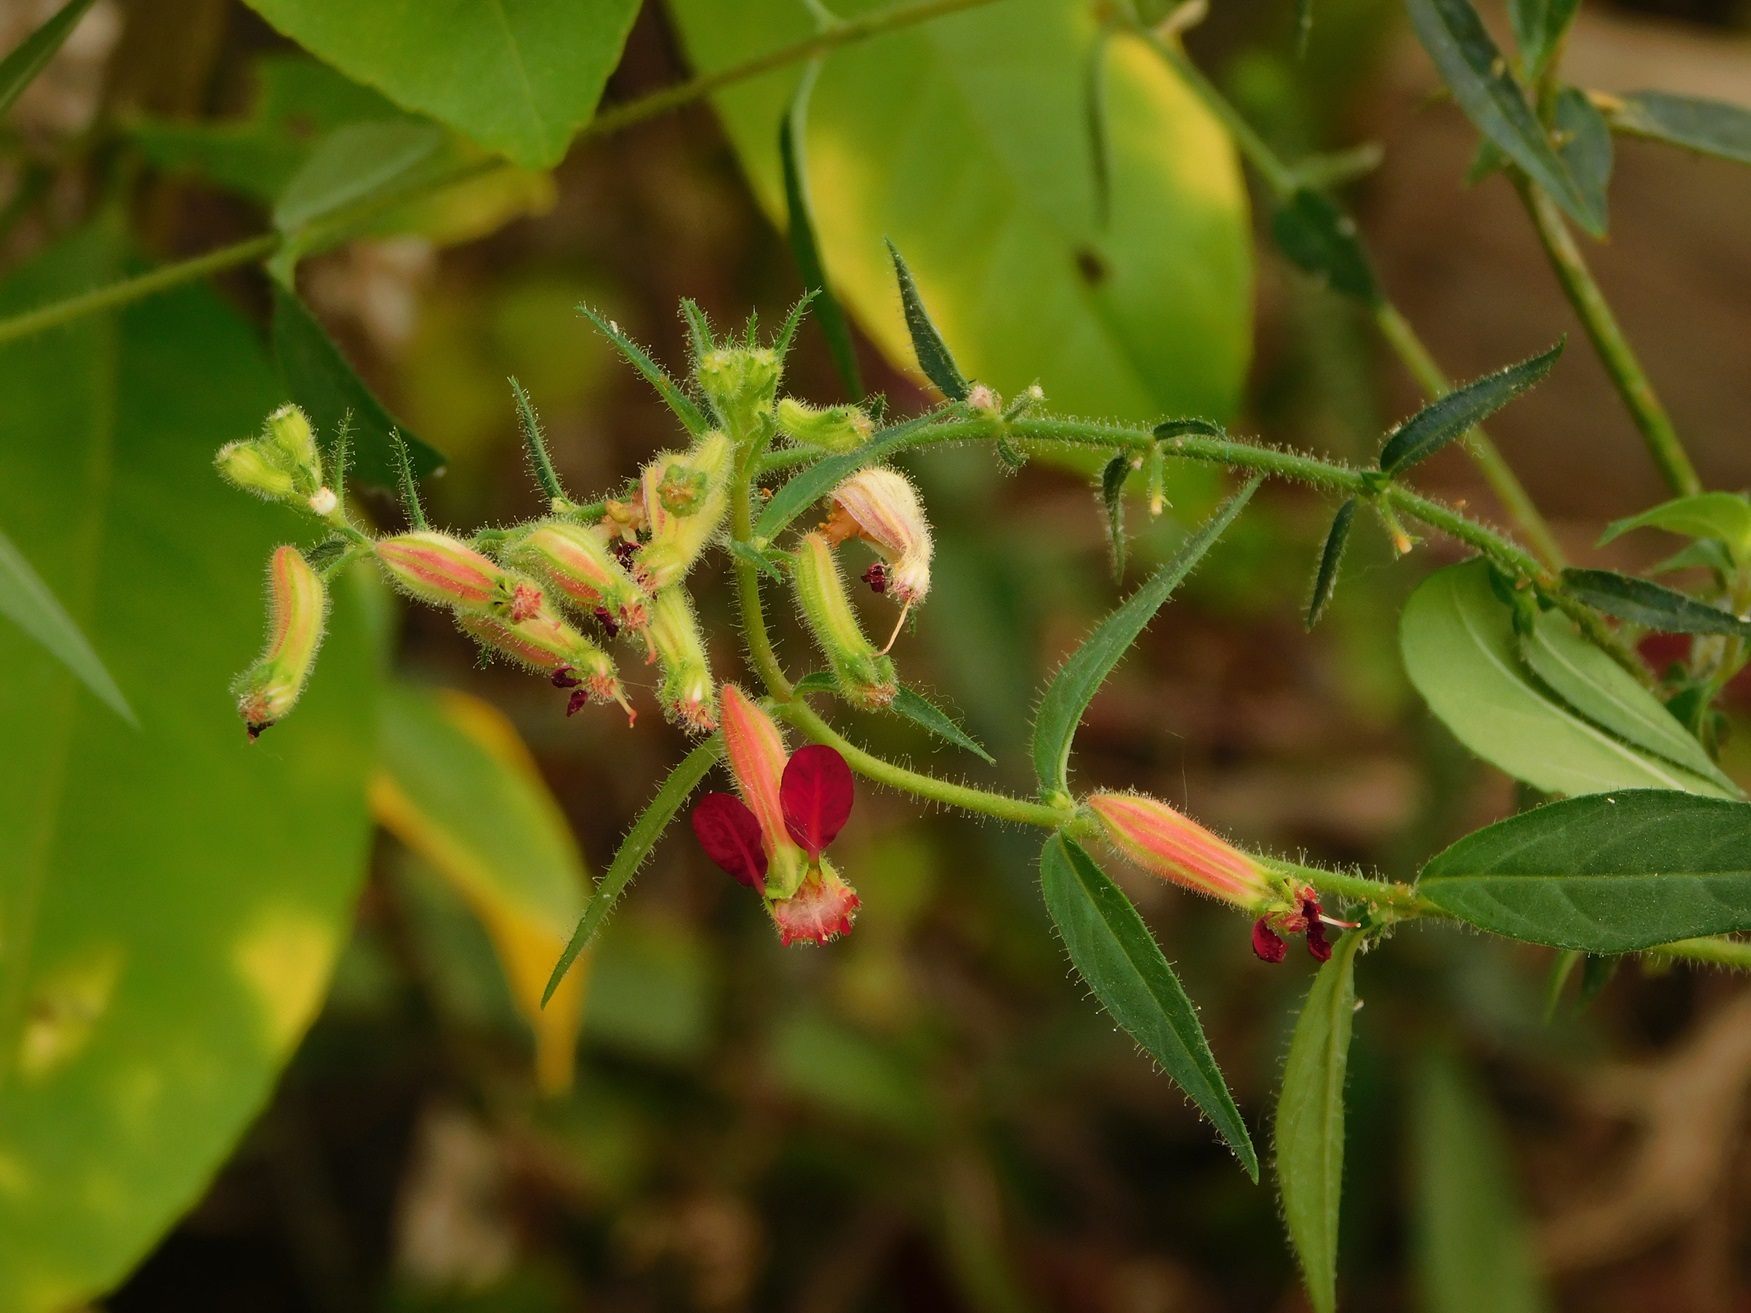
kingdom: Plantae
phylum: Tracheophyta
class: Magnoliopsida
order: Myrtales
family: Lythraceae
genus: Cuphea
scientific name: Cuphea hookeriana
